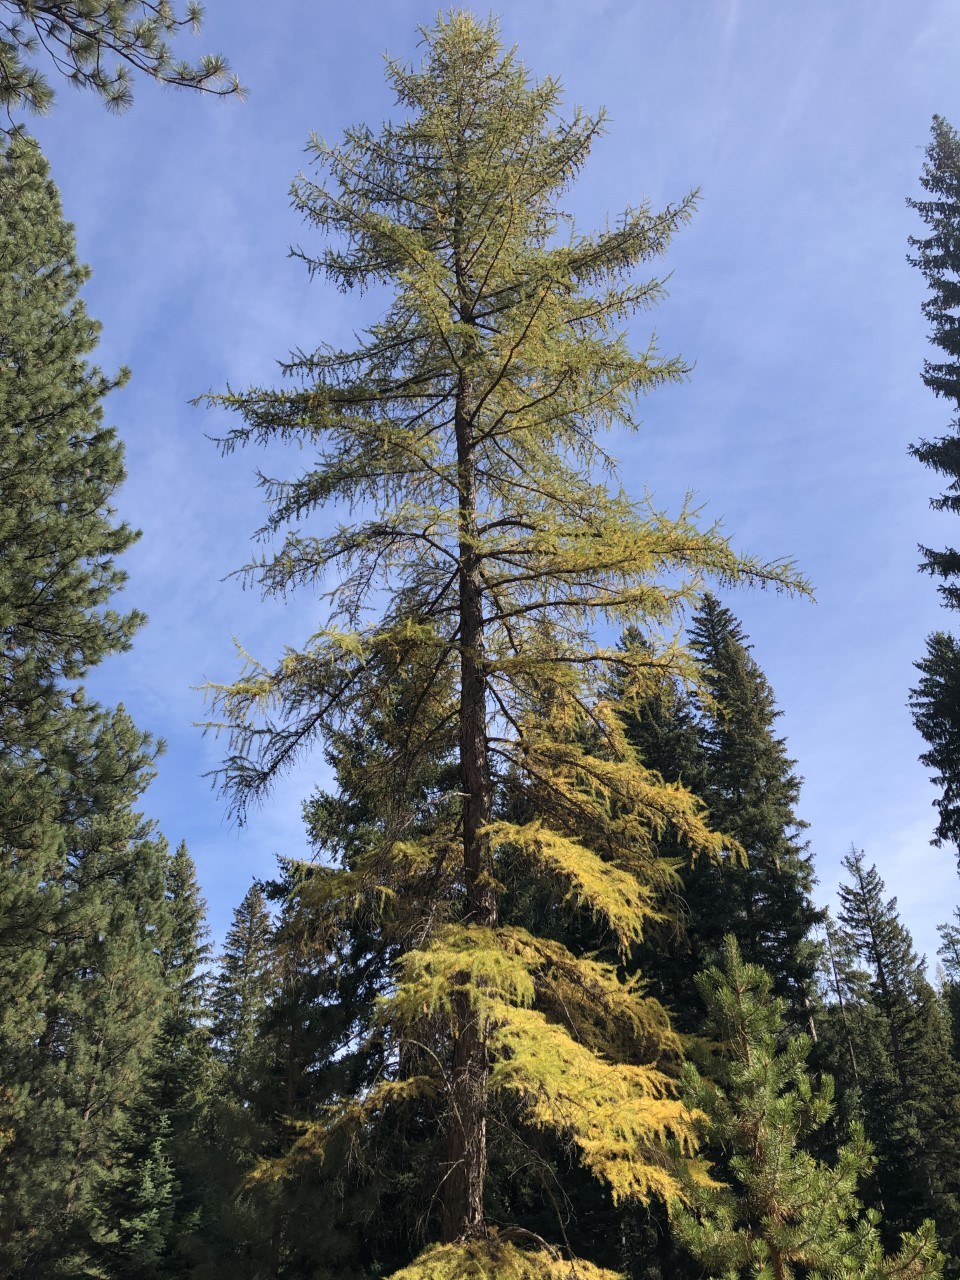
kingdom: Plantae
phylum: Tracheophyta
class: Pinopsida
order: Pinales
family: Pinaceae
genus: Larix
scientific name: Larix occidentalis
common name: Western larch
